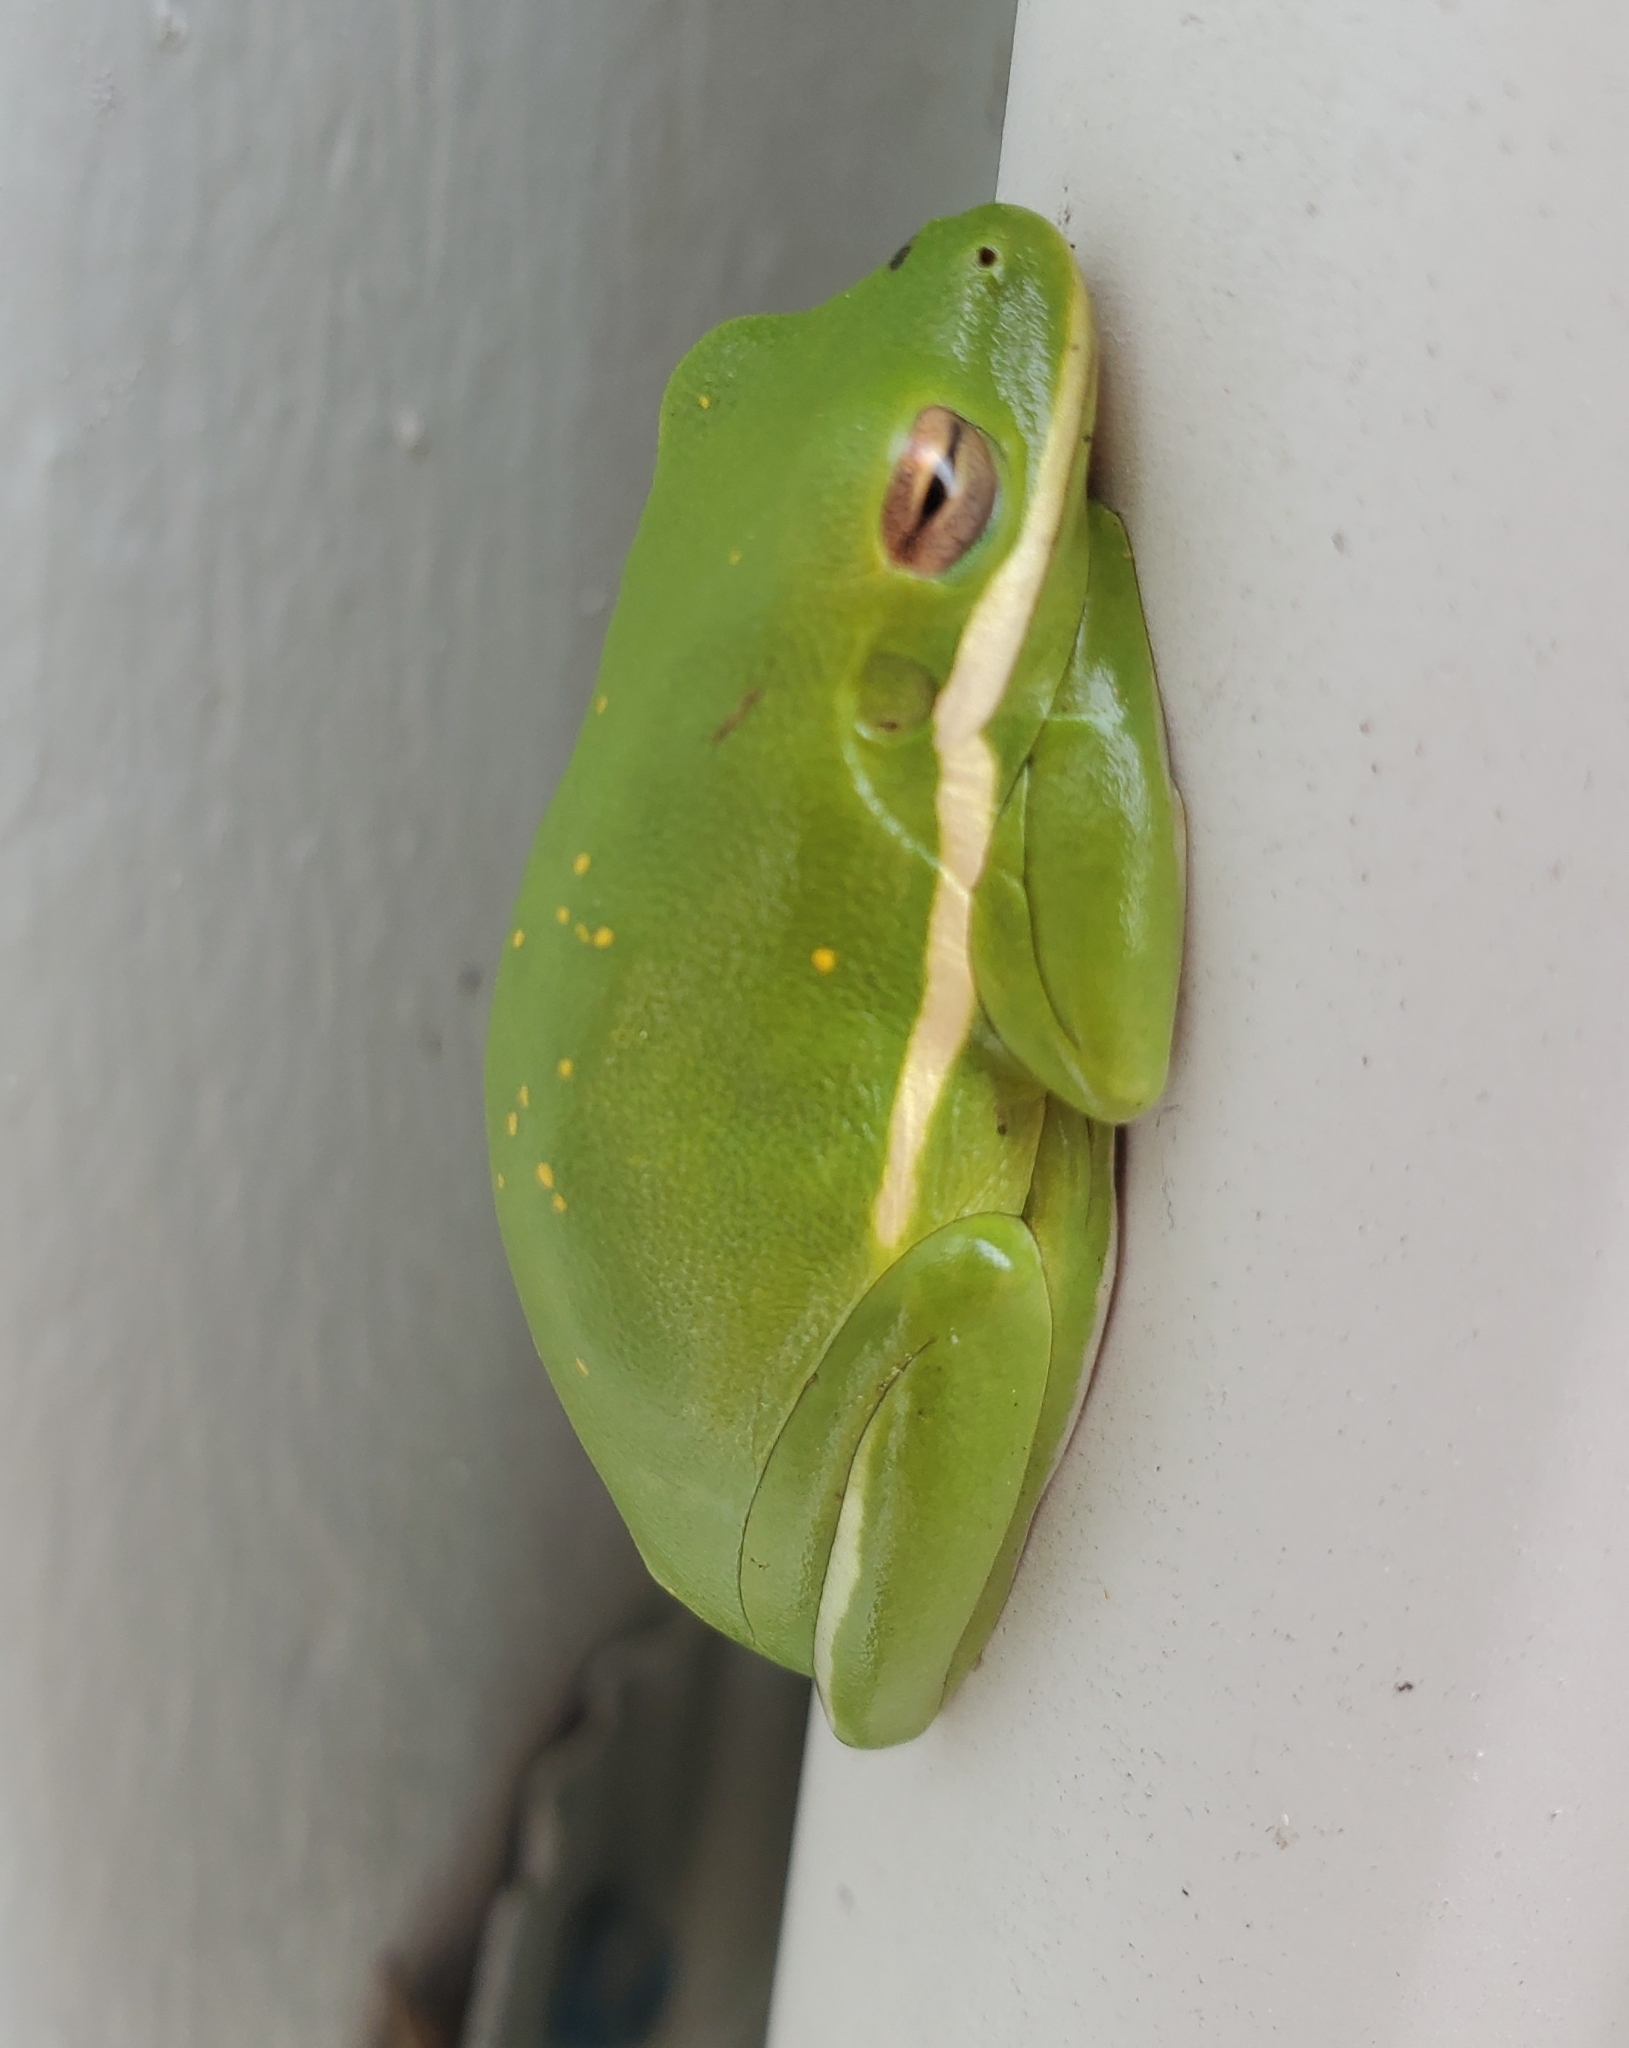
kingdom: Animalia
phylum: Chordata
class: Amphibia
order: Anura
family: Hylidae
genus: Dryophytes
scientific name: Dryophytes cinereus
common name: Green treefrog
